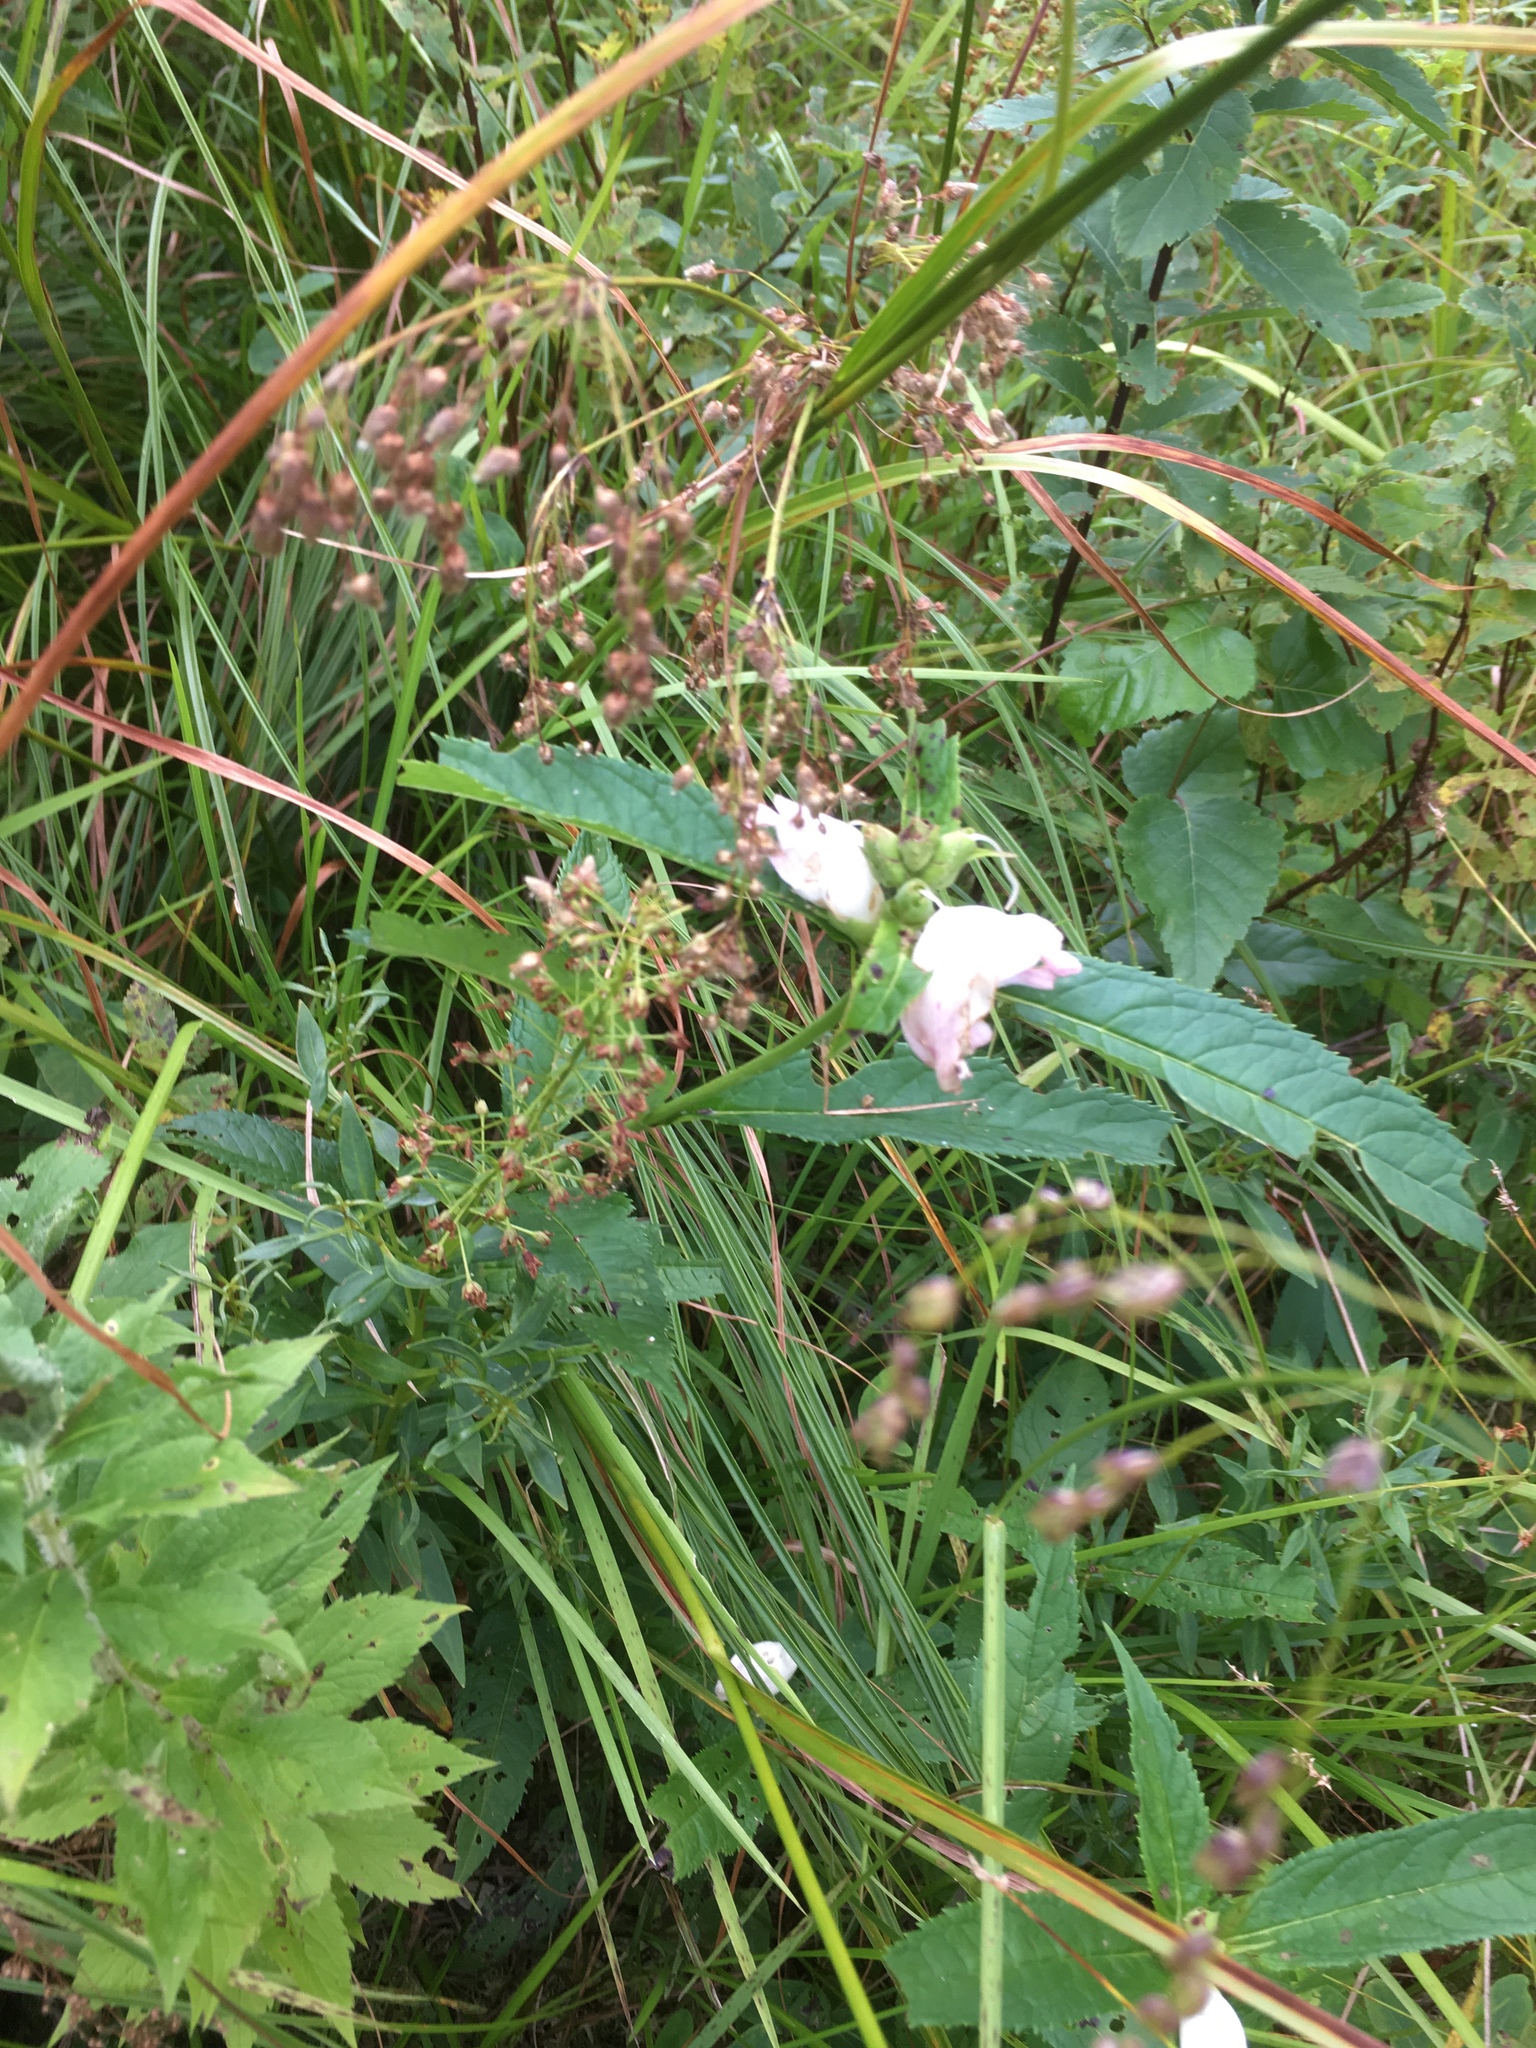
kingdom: Plantae
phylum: Tracheophyta
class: Magnoliopsida
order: Lamiales
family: Plantaginaceae
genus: Chelone
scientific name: Chelone glabra
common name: Snakehead
